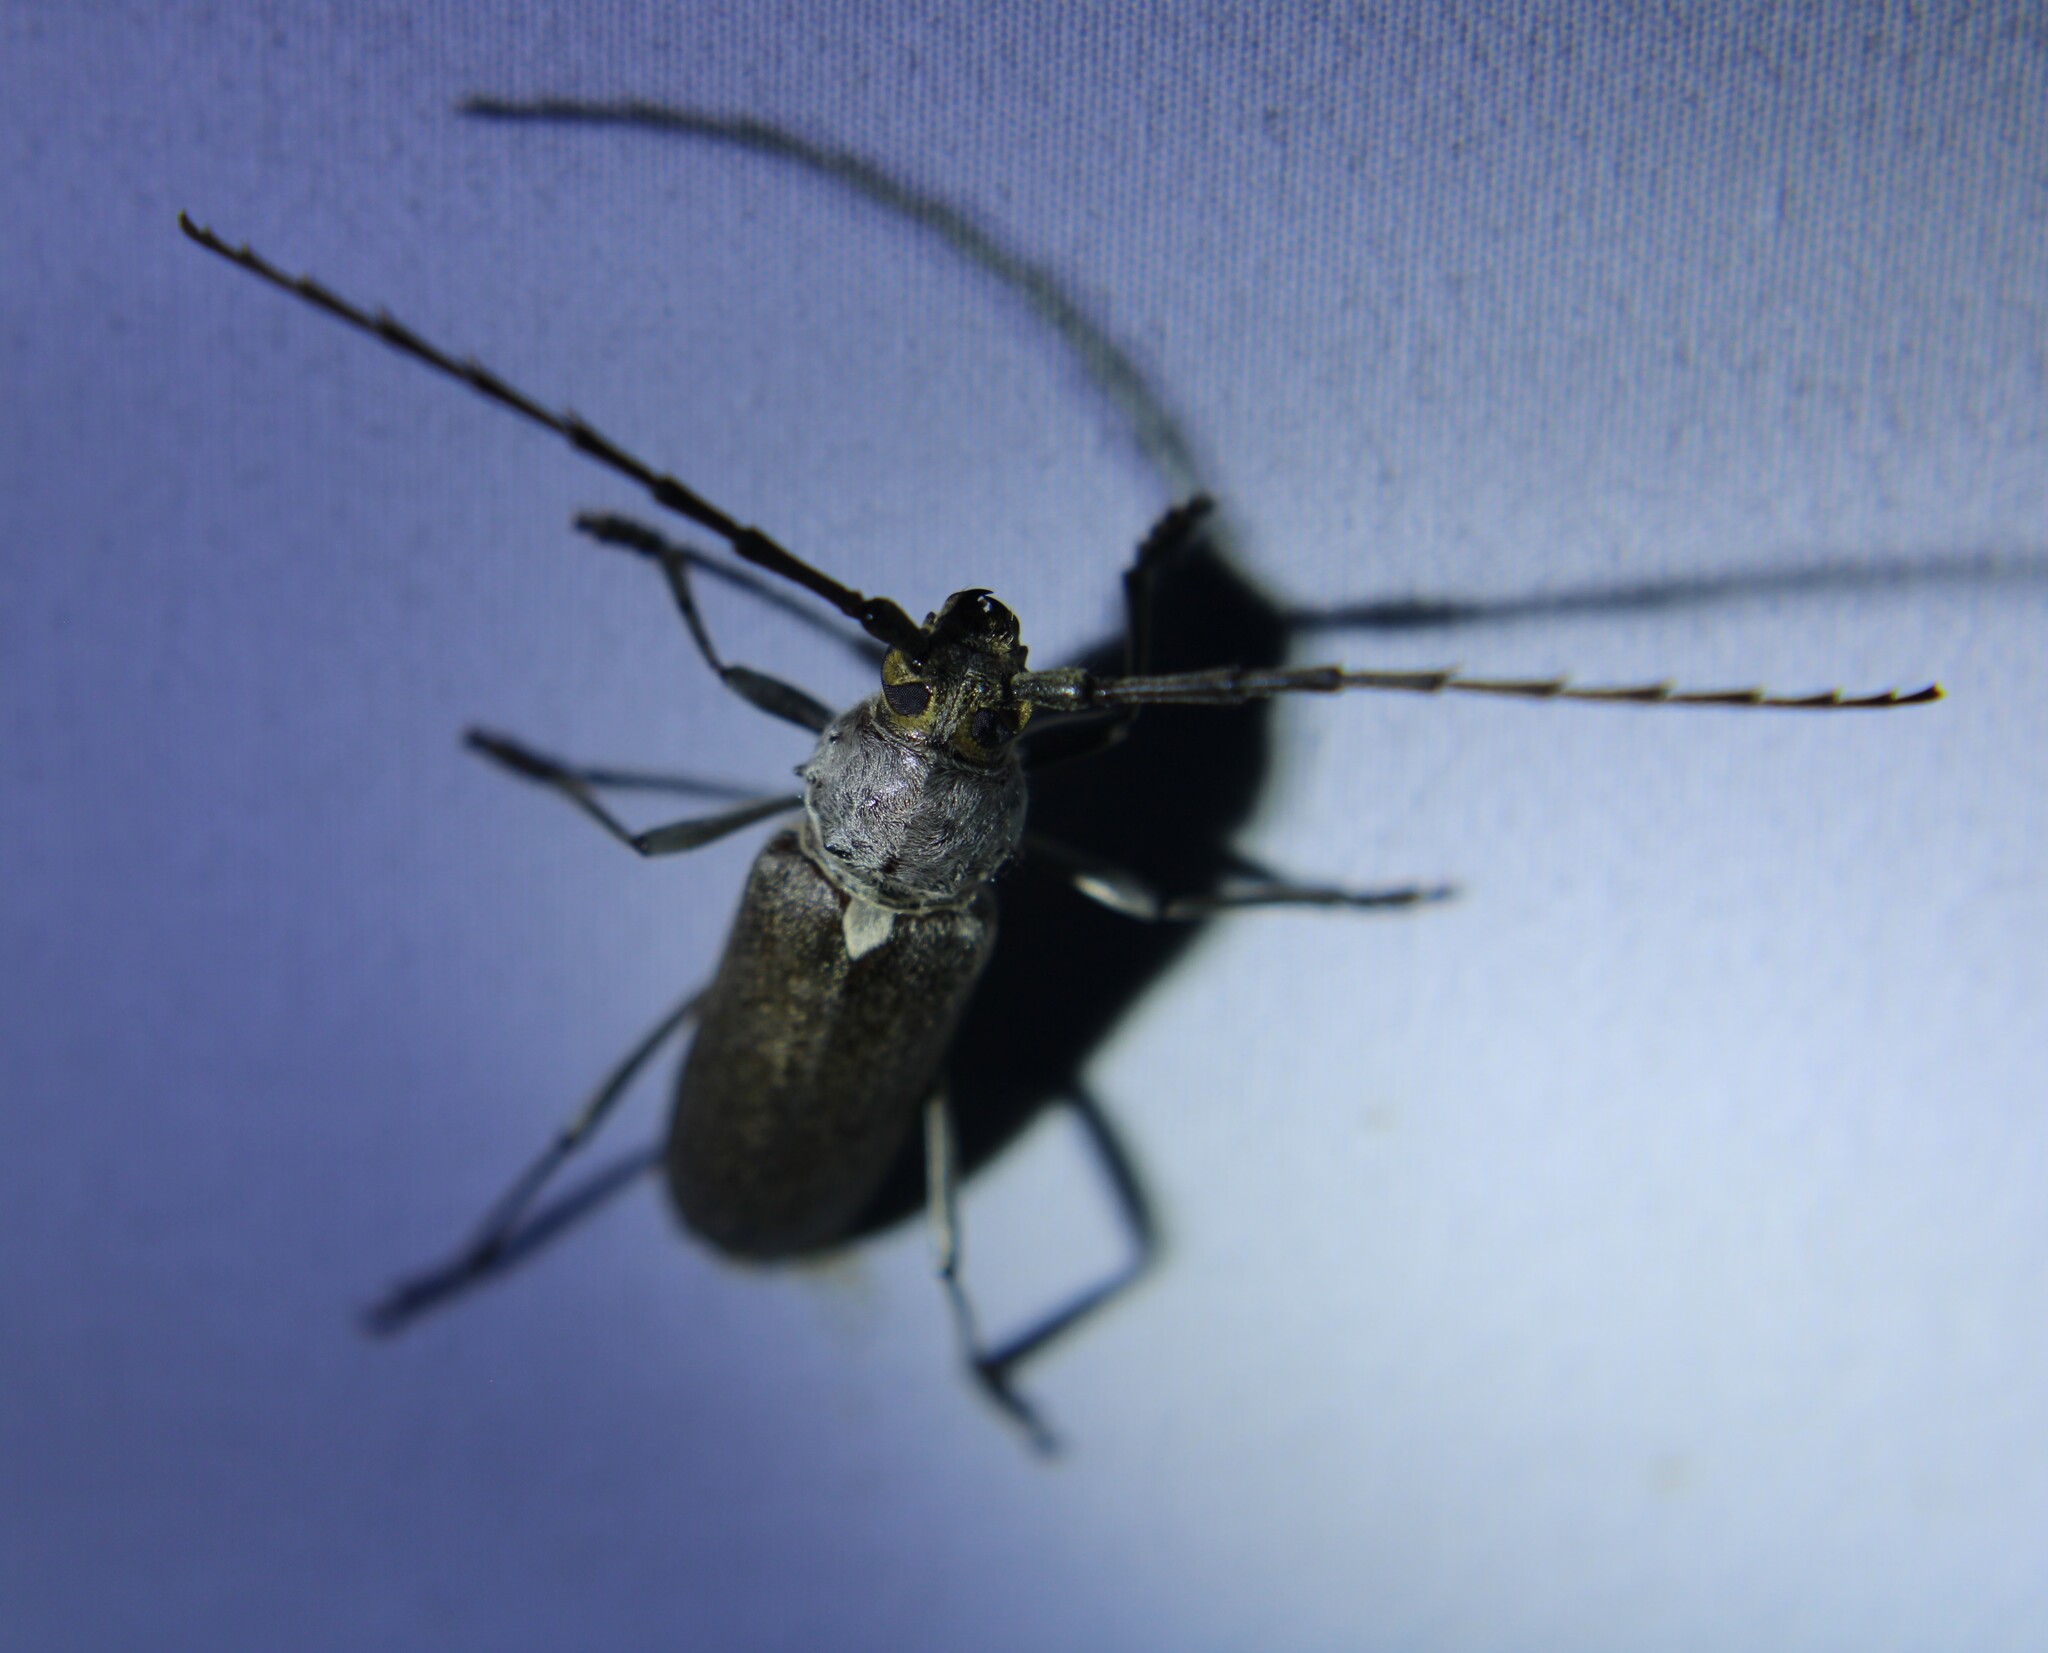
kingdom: Animalia
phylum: Arthropoda
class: Insecta
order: Coleoptera
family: Cerambycidae
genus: Gnaphalodes
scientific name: Gnaphalodes trachyderoides
